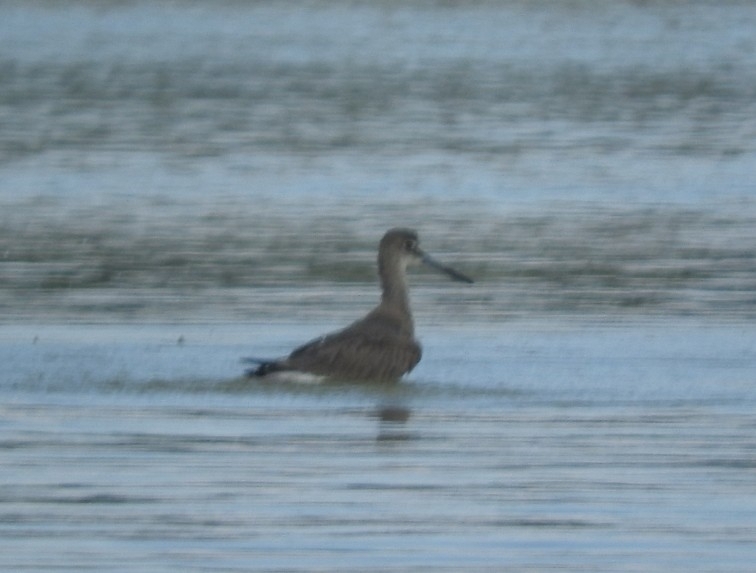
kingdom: Animalia
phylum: Chordata
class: Aves
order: Charadriiformes
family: Scolopacidae
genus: Tringa
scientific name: Tringa semipalmata
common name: Willet
